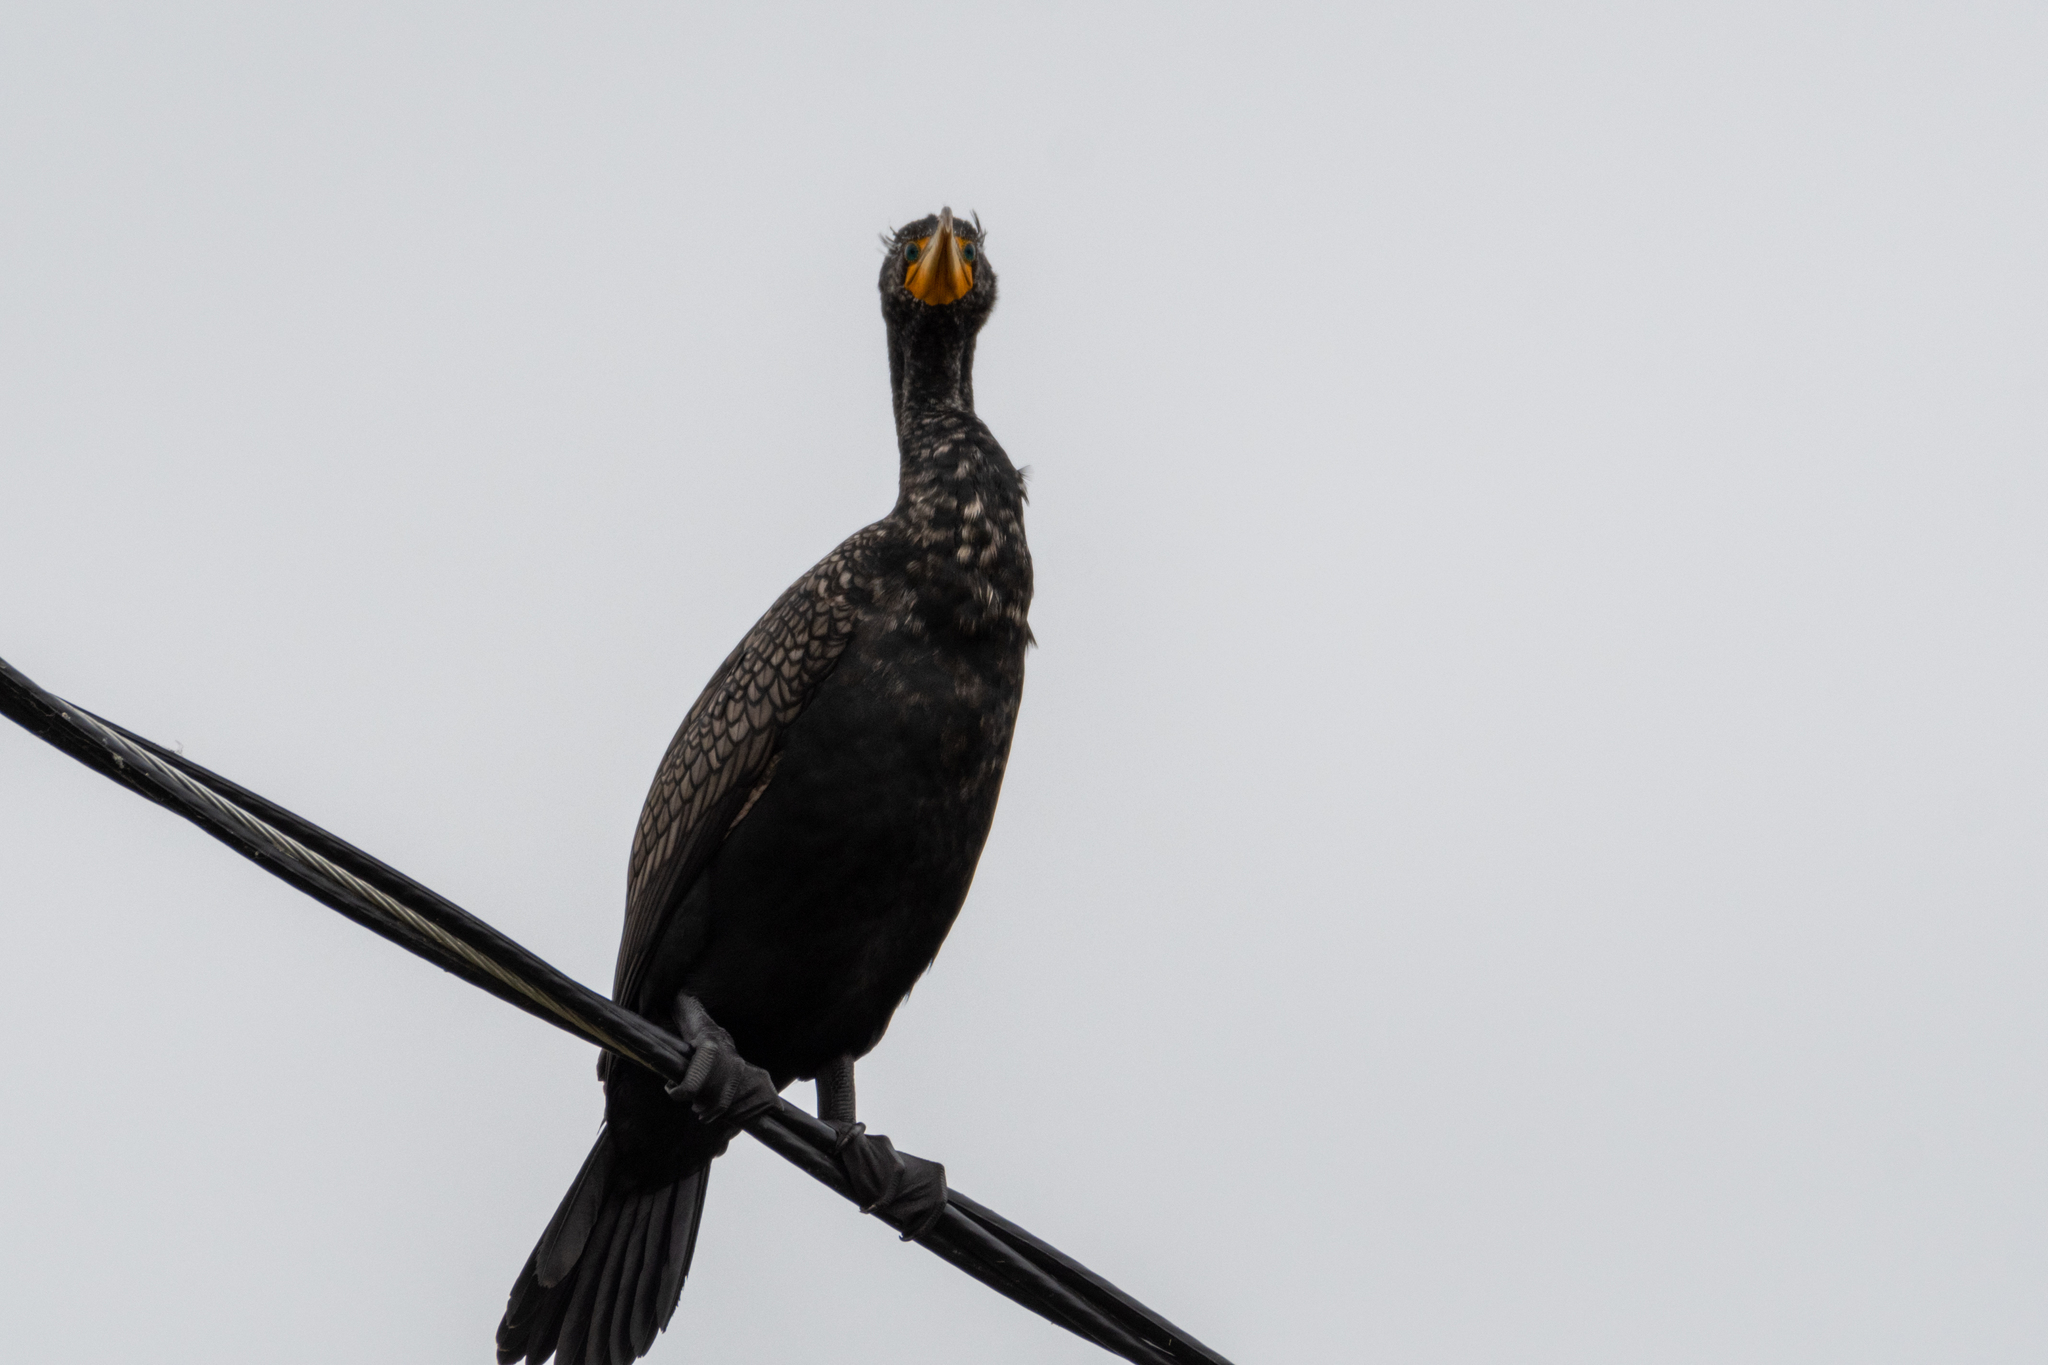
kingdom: Animalia
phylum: Chordata
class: Aves
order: Suliformes
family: Phalacrocoracidae
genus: Phalacrocorax
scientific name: Phalacrocorax auritus
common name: Double-crested cormorant
